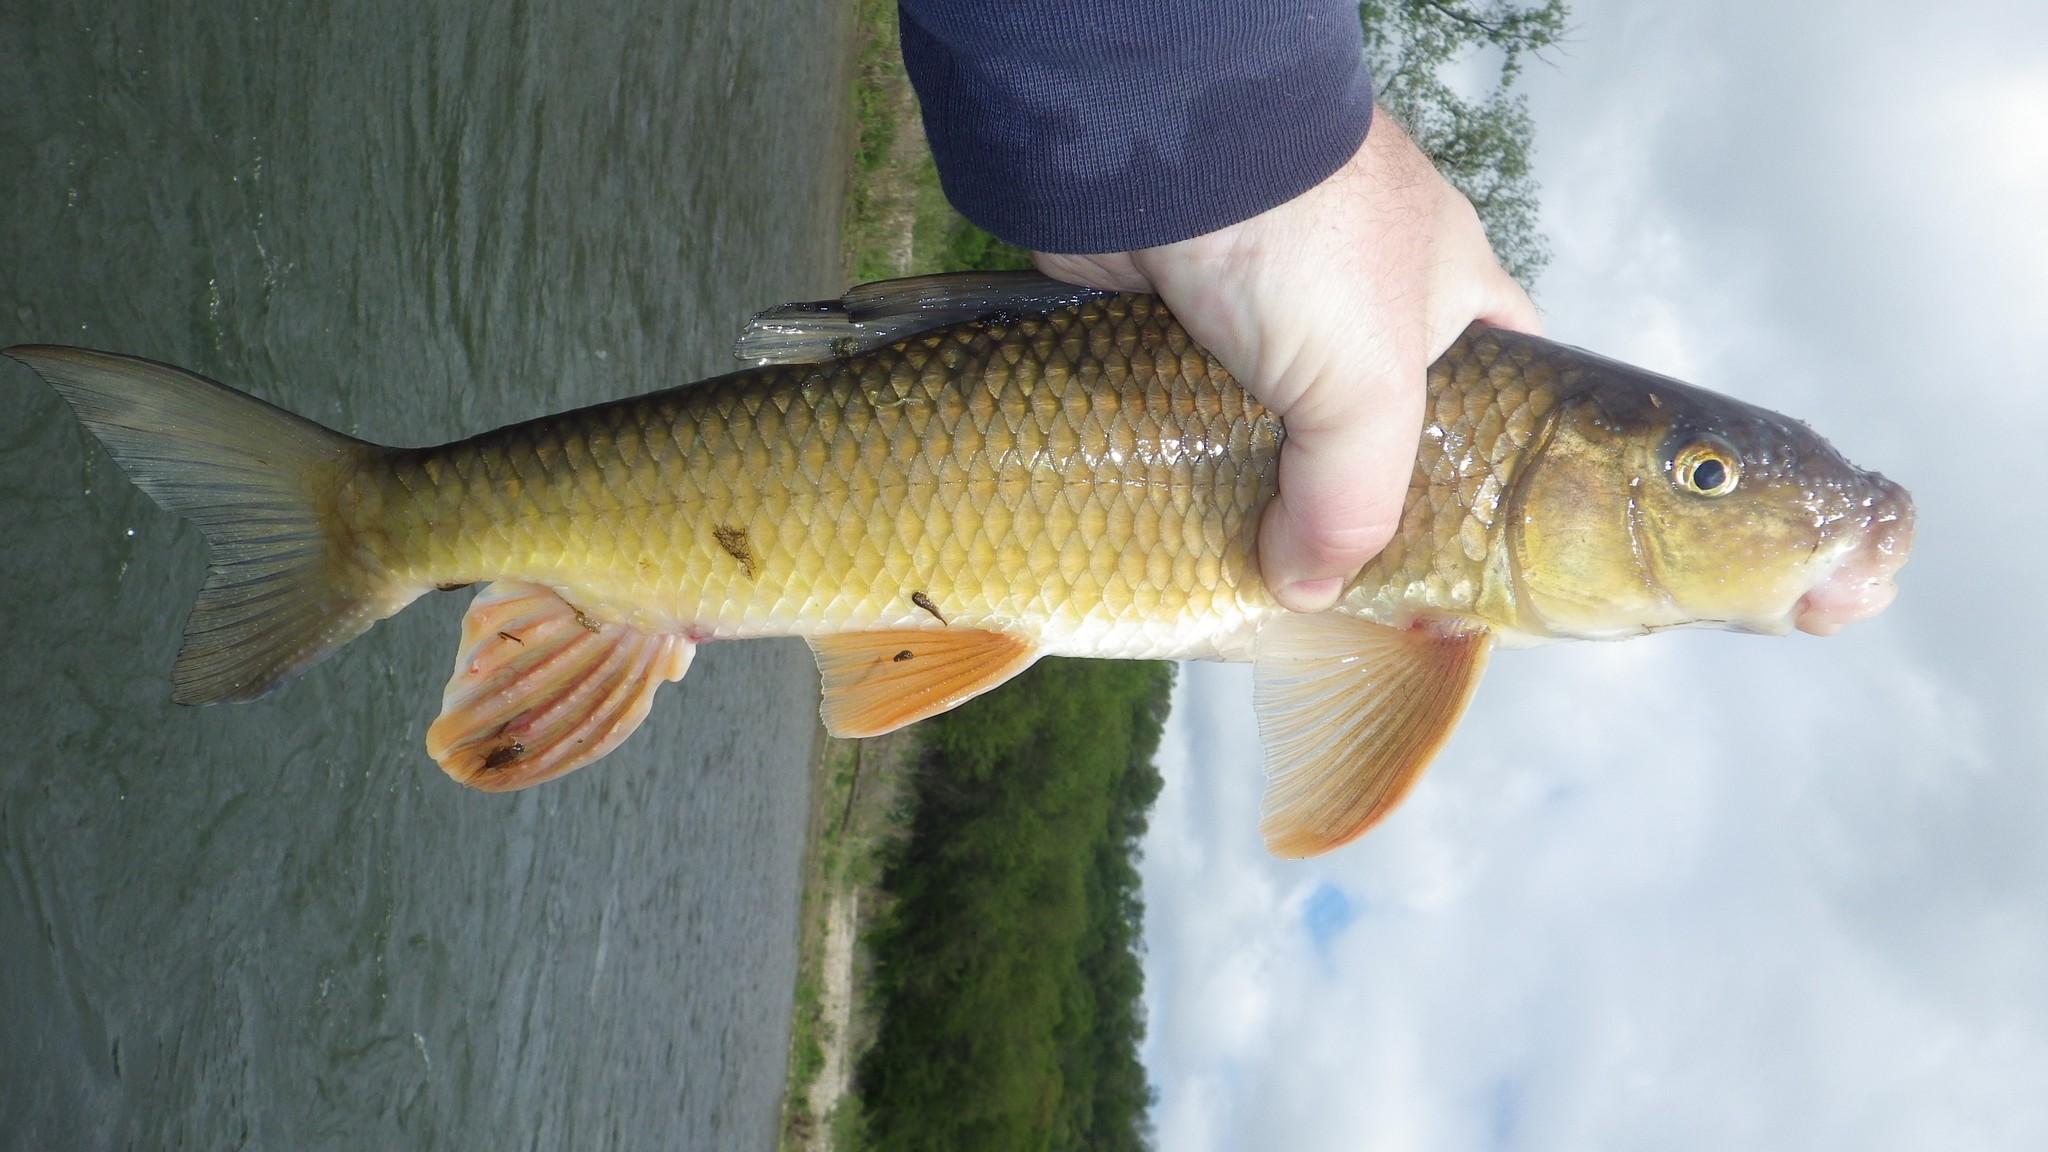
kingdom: Animalia
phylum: Chordata
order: Cypriniformes
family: Catostomidae
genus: Moxostoma
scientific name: Moxostoma erythrurum
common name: Golden redhorse
